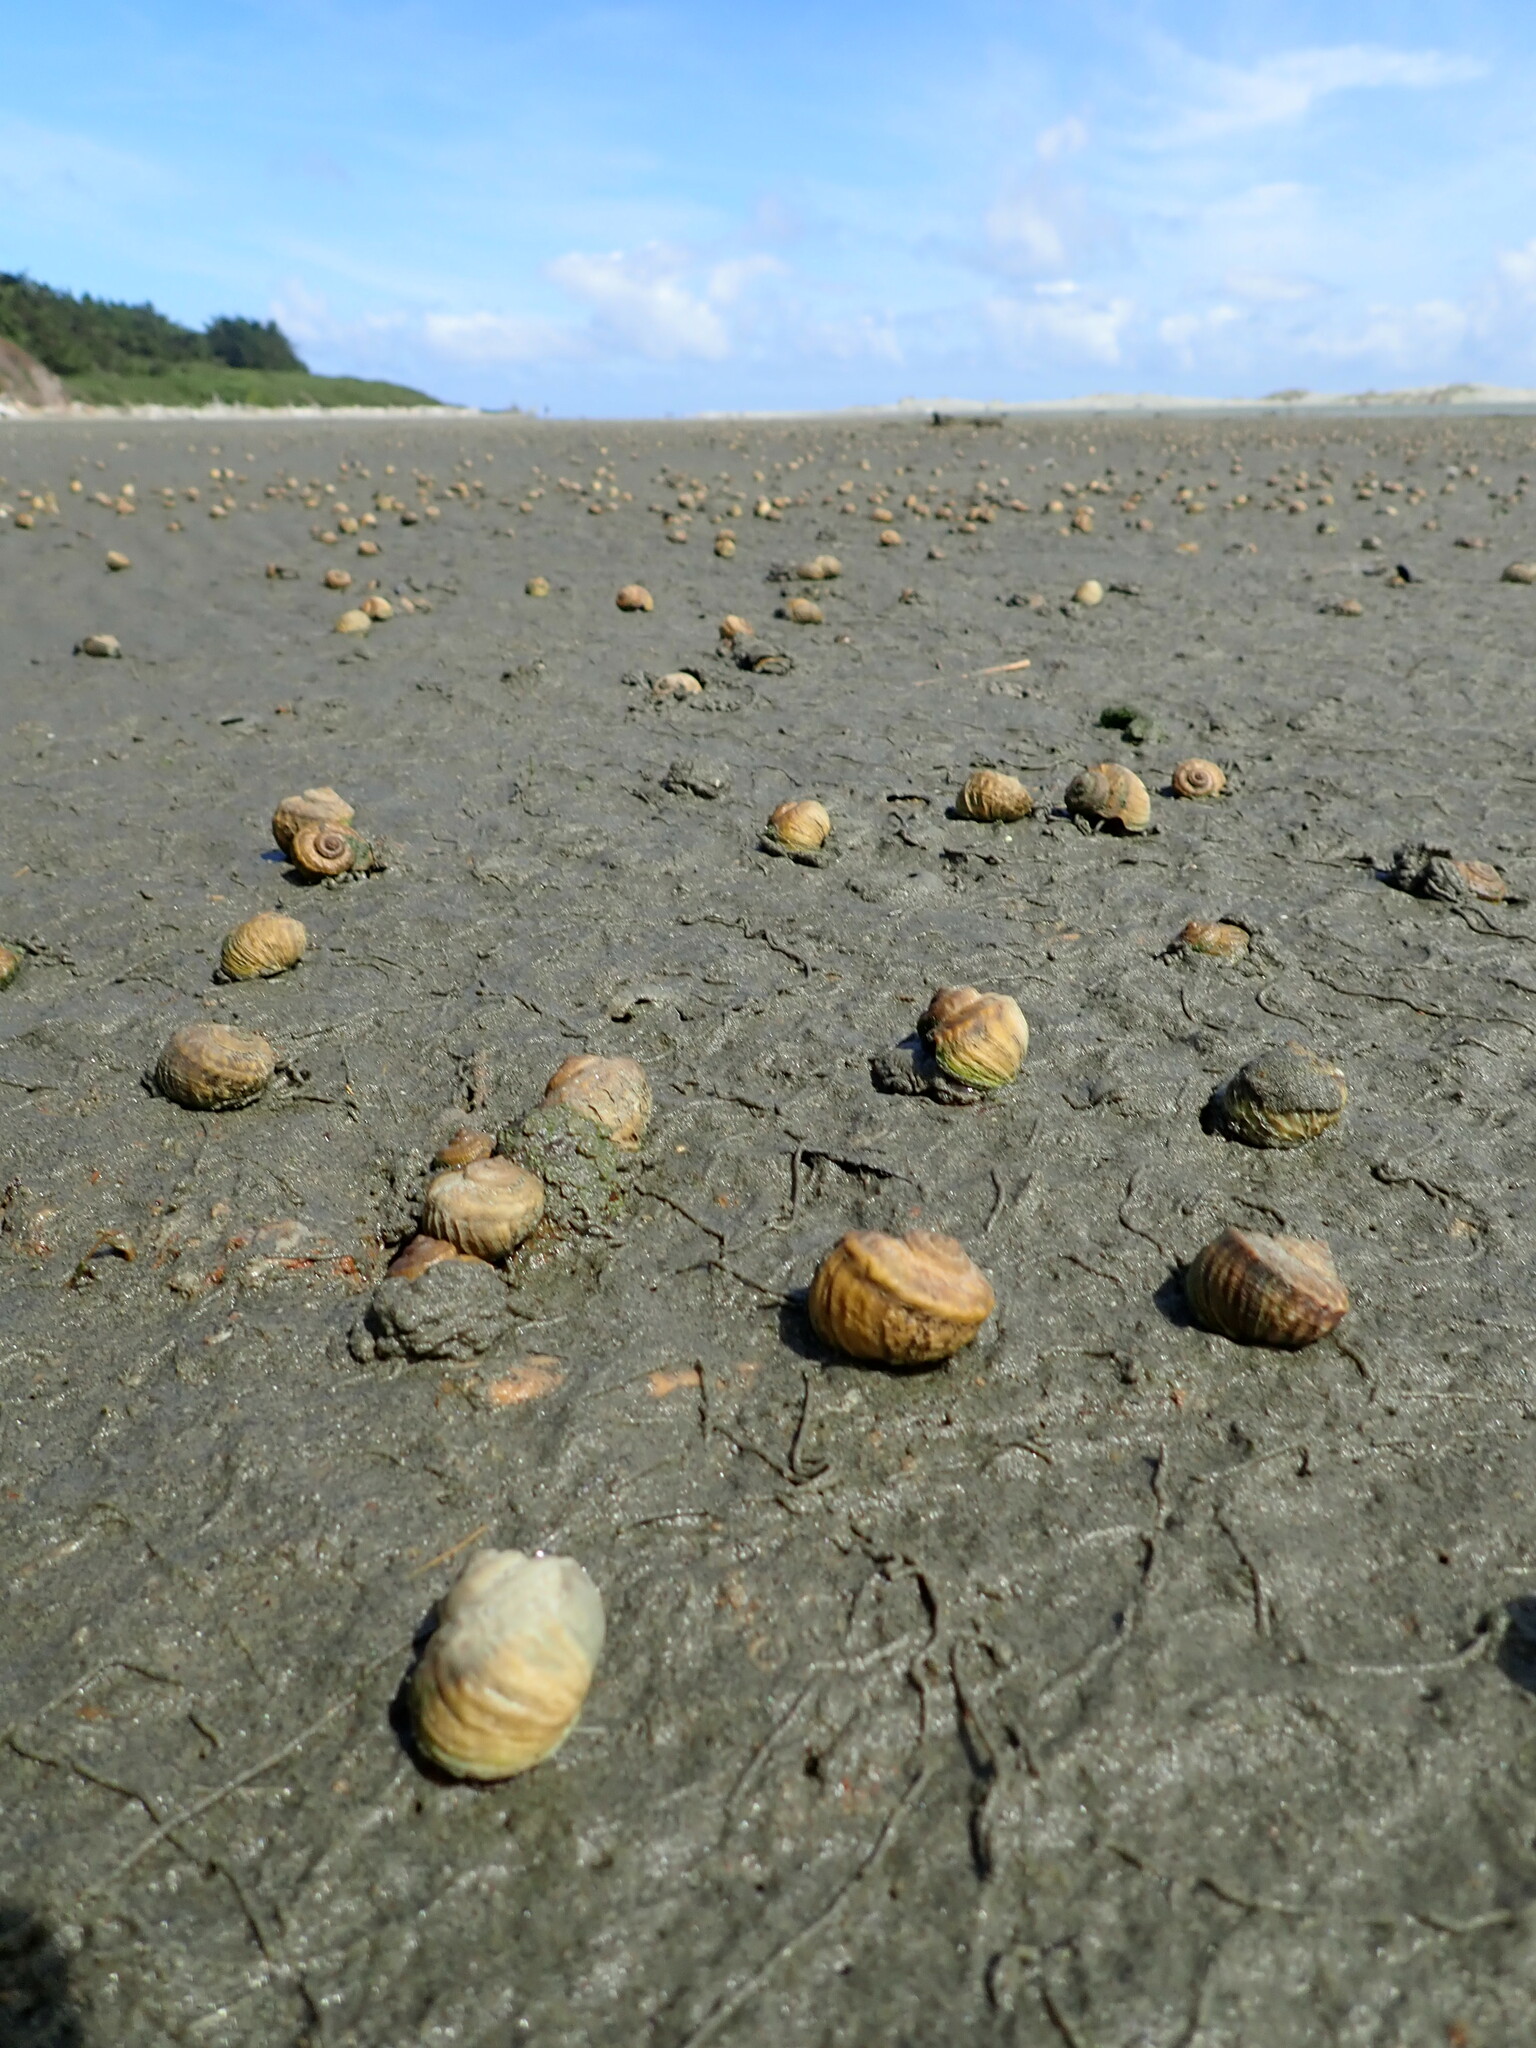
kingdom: Animalia
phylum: Mollusca
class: Gastropoda
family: Amphibolidae
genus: Amphibola
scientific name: Amphibola crenata
